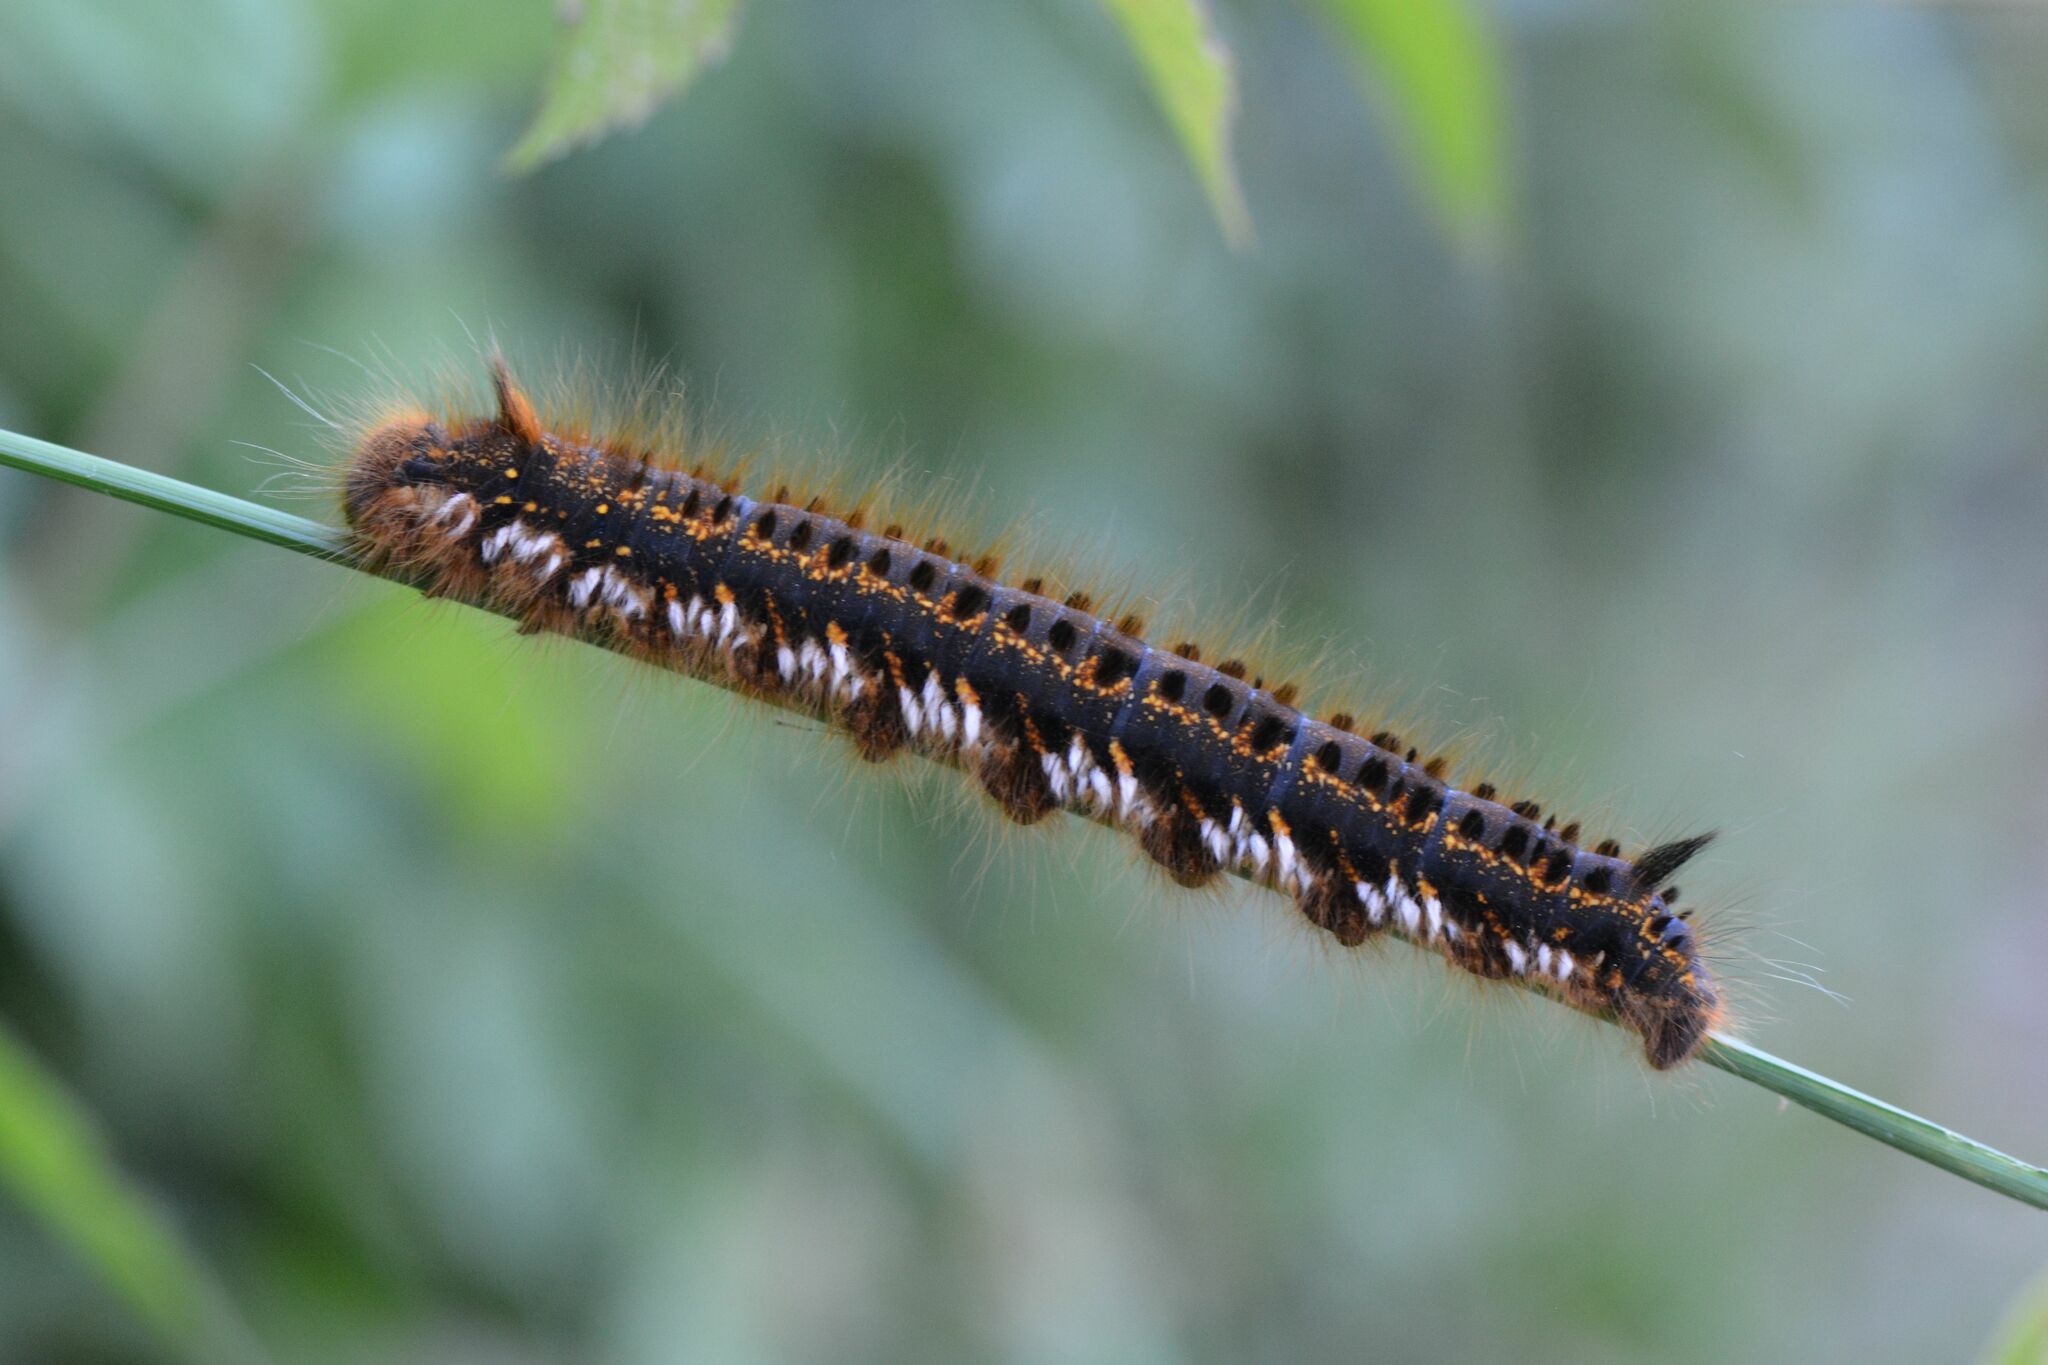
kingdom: Animalia
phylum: Arthropoda
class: Insecta
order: Lepidoptera
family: Lasiocampidae
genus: Euthrix
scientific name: Euthrix potatoria
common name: Drinker
